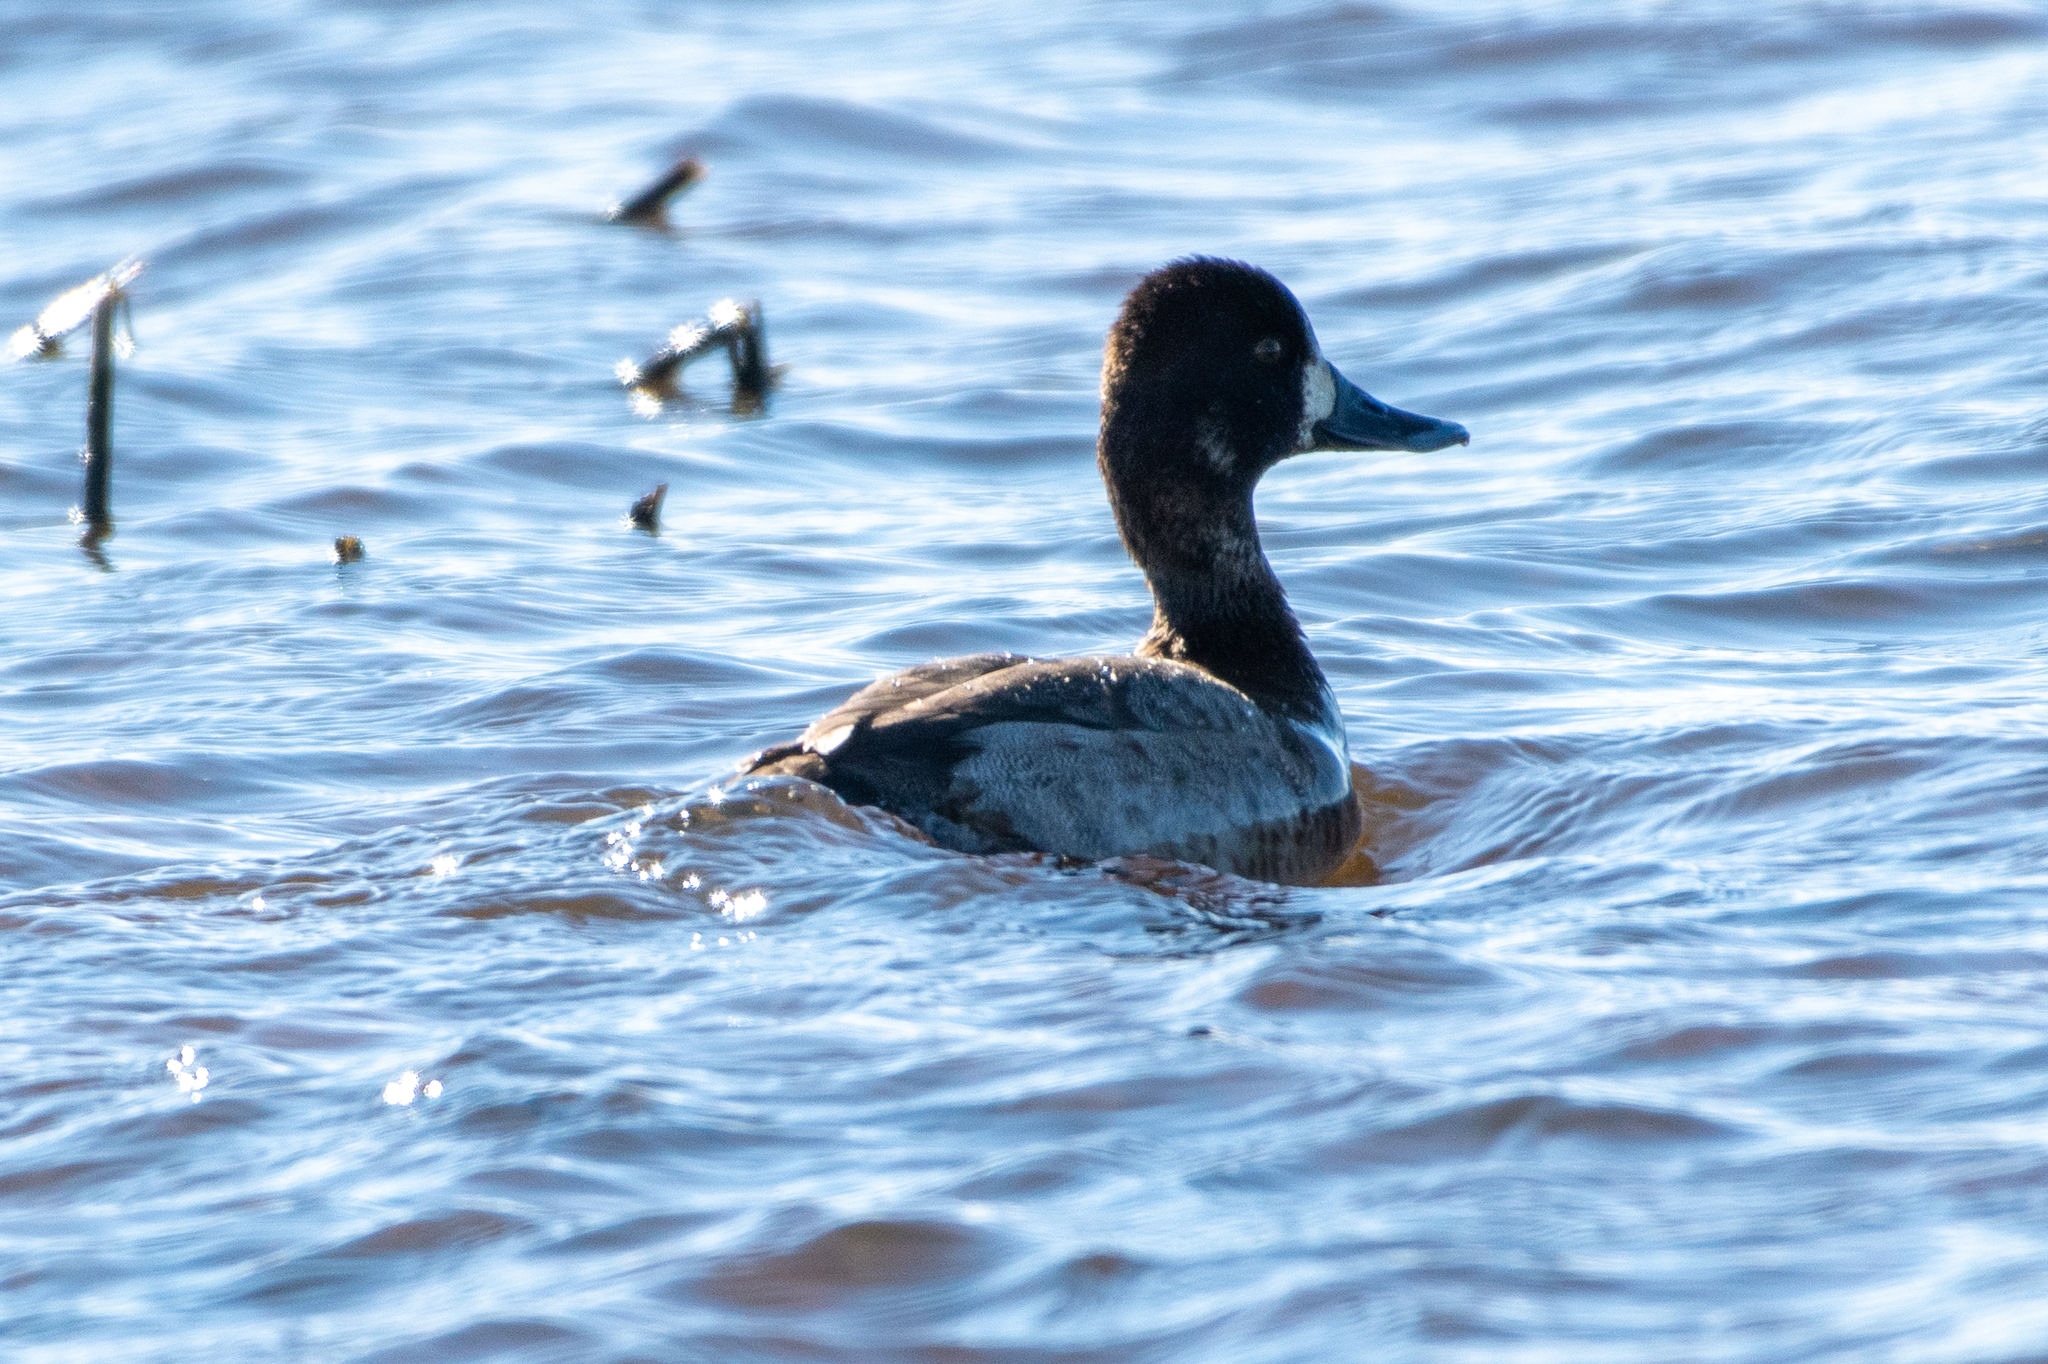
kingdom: Animalia
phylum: Chordata
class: Aves
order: Anseriformes
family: Anatidae
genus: Aythya
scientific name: Aythya affinis
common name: Lesser scaup
